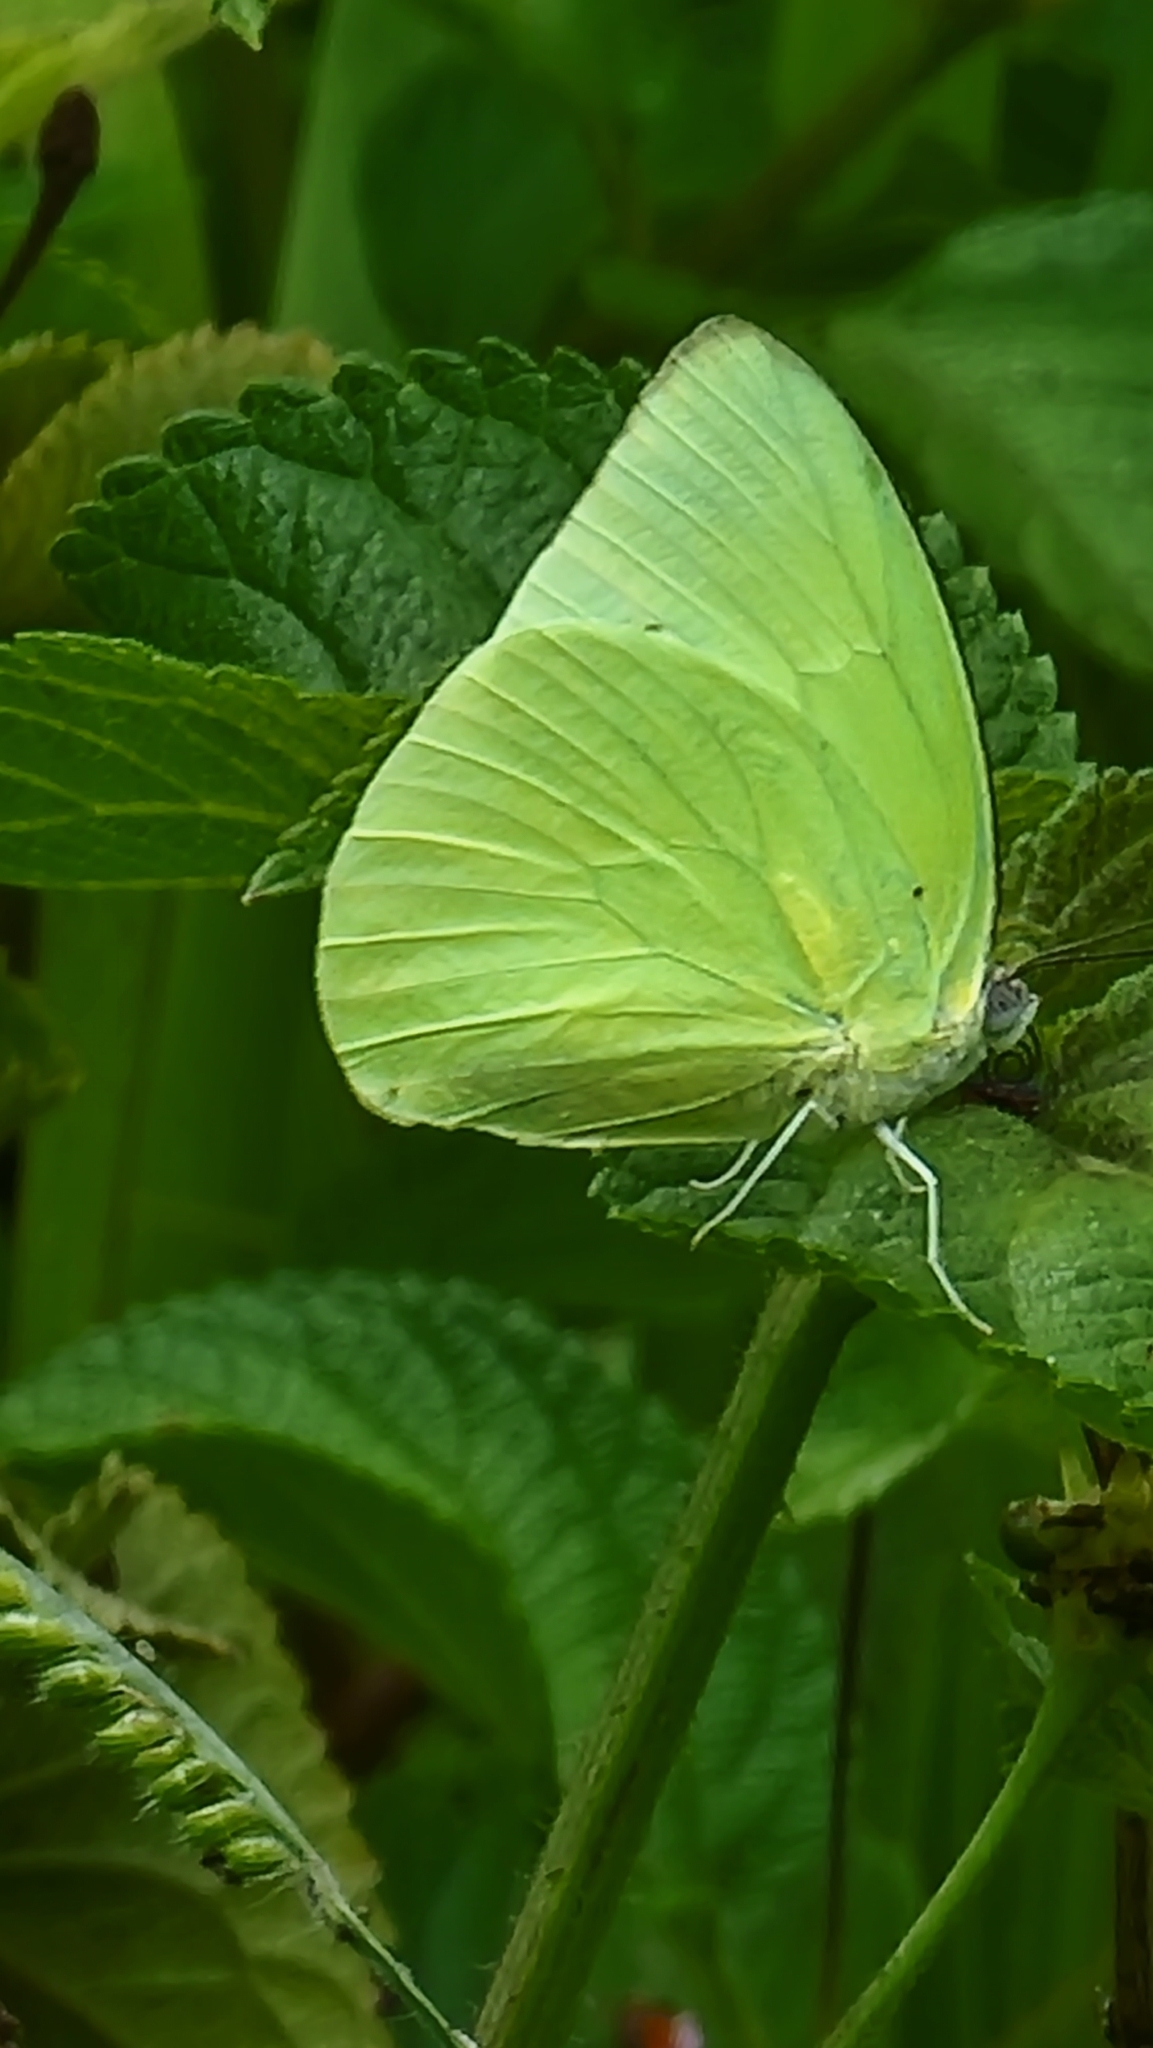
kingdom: Animalia
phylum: Arthropoda
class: Insecta
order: Lepidoptera
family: Pieridae
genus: Catopsilia
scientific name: Catopsilia pomona
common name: Common emigrant
